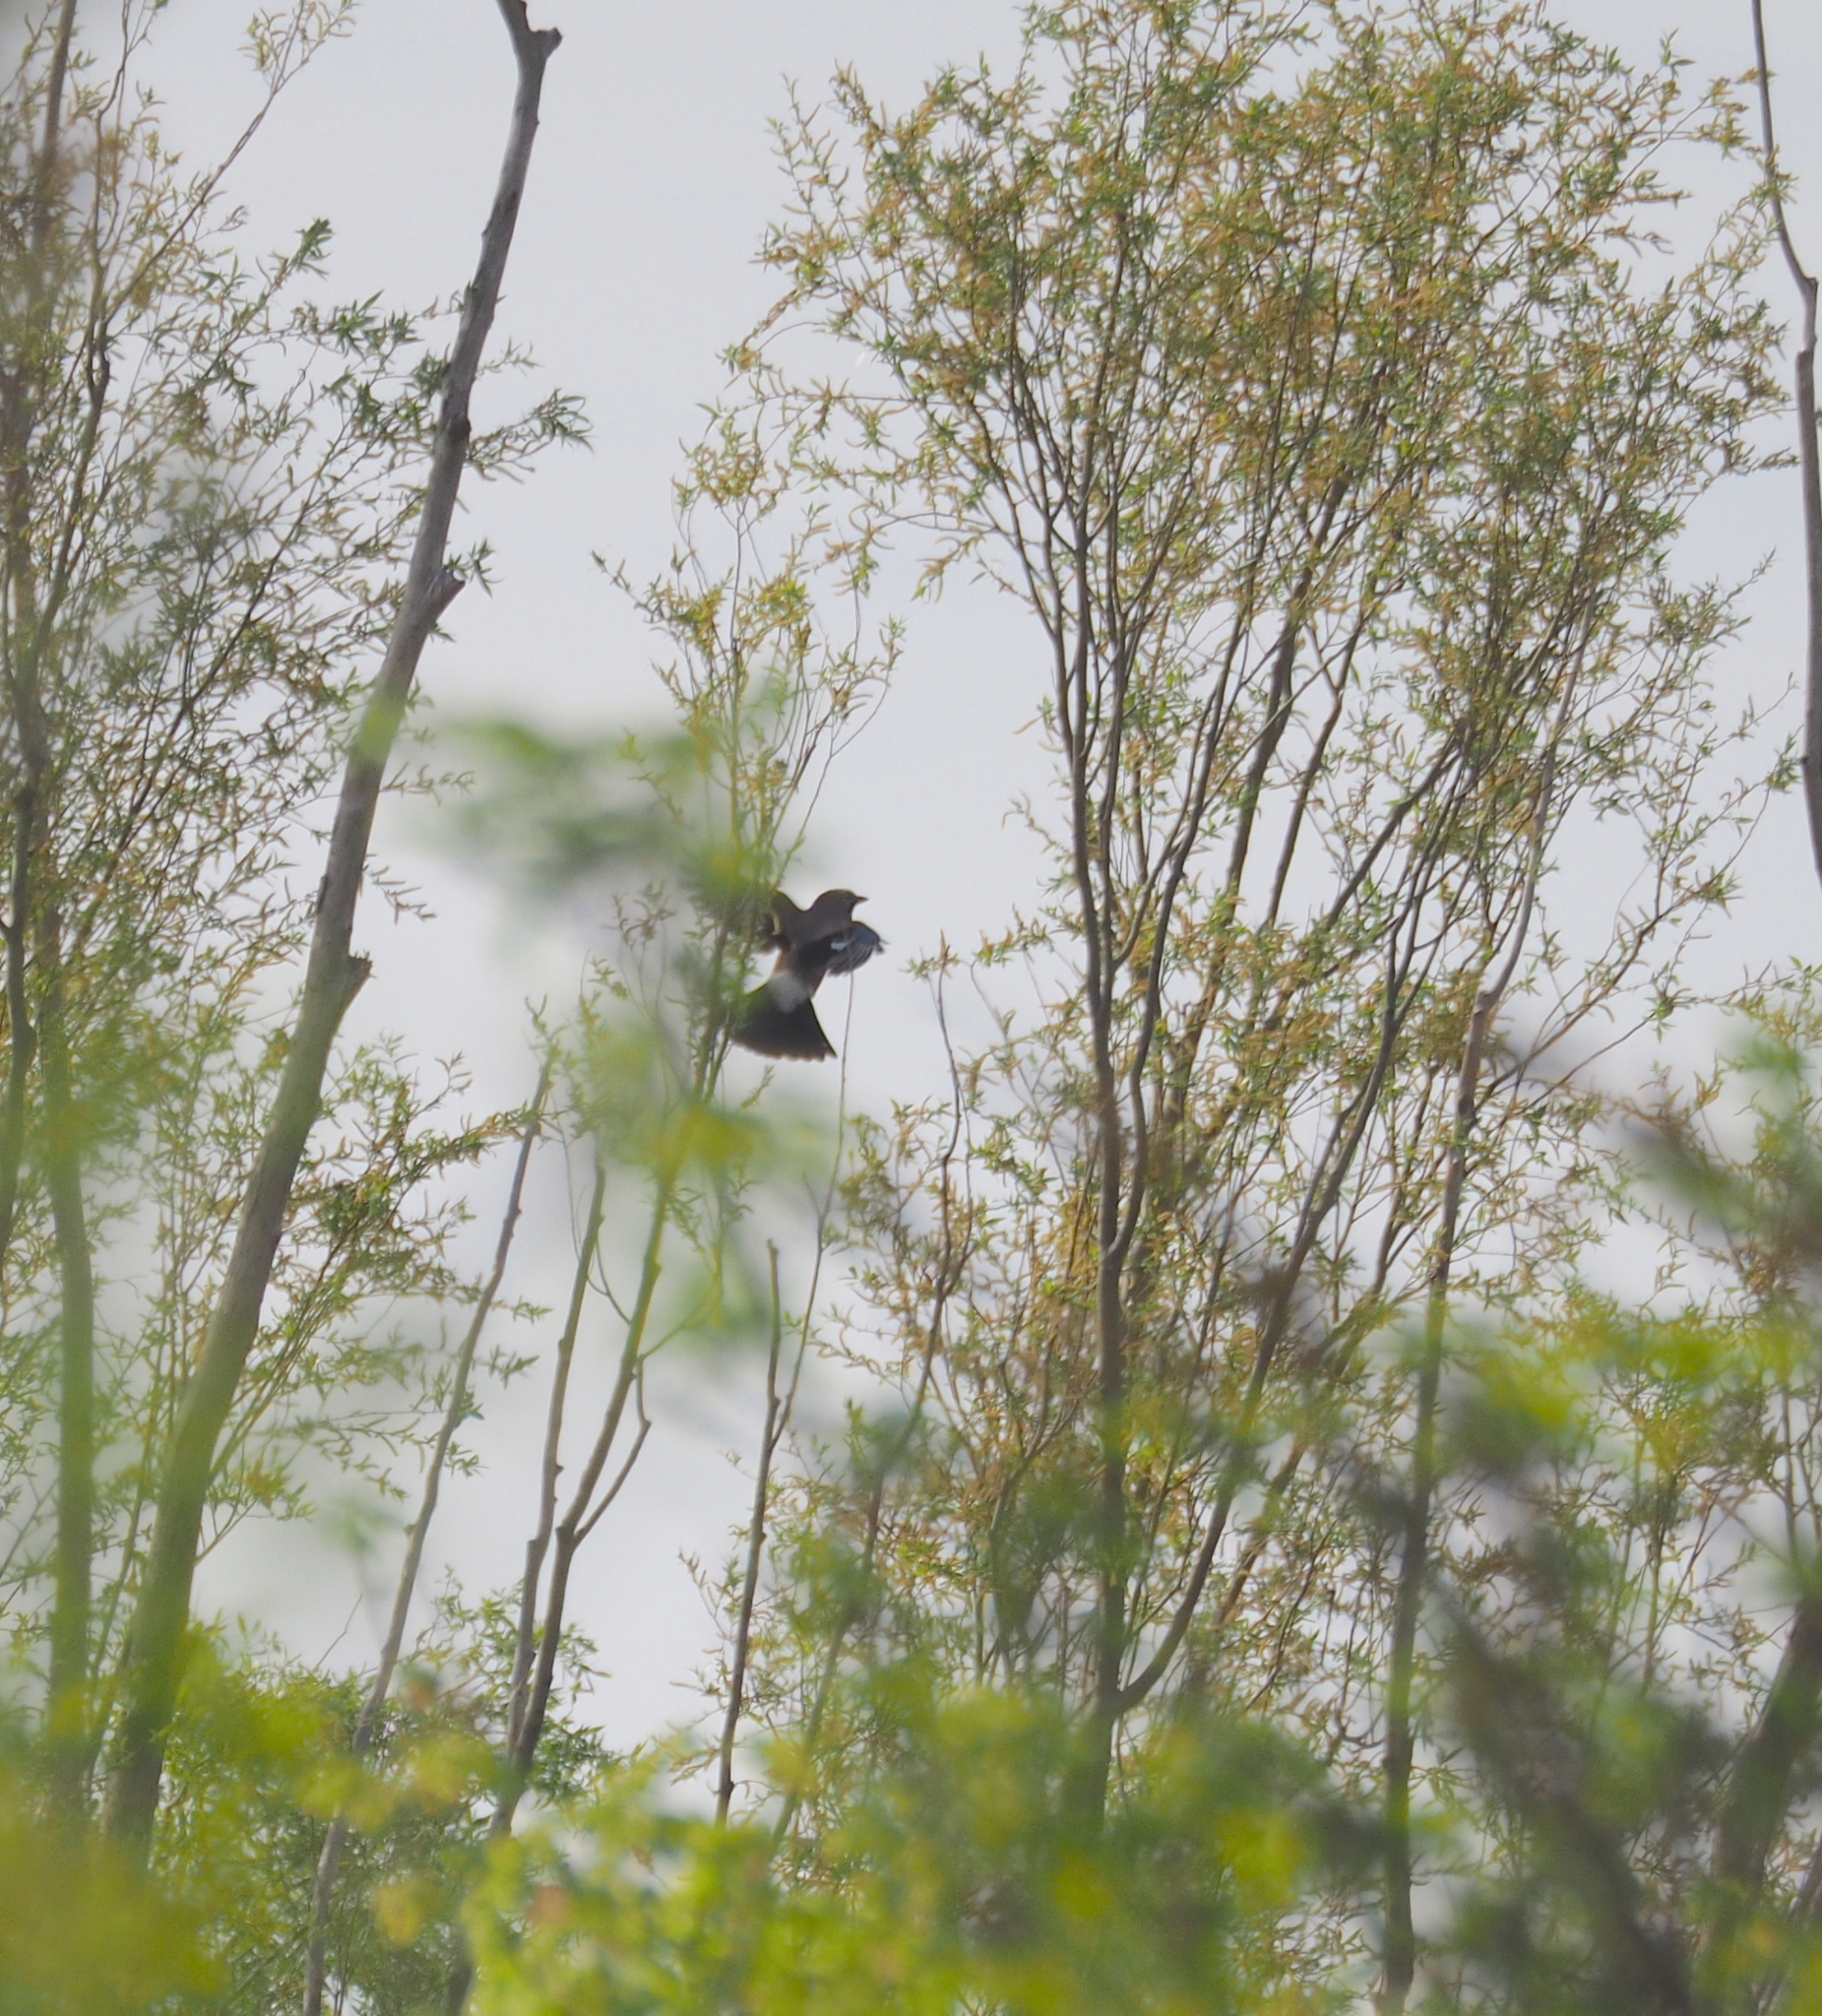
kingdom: Animalia
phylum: Chordata
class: Aves
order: Passeriformes
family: Corvidae
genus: Garrulus
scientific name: Garrulus glandarius
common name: Eurasian jay
